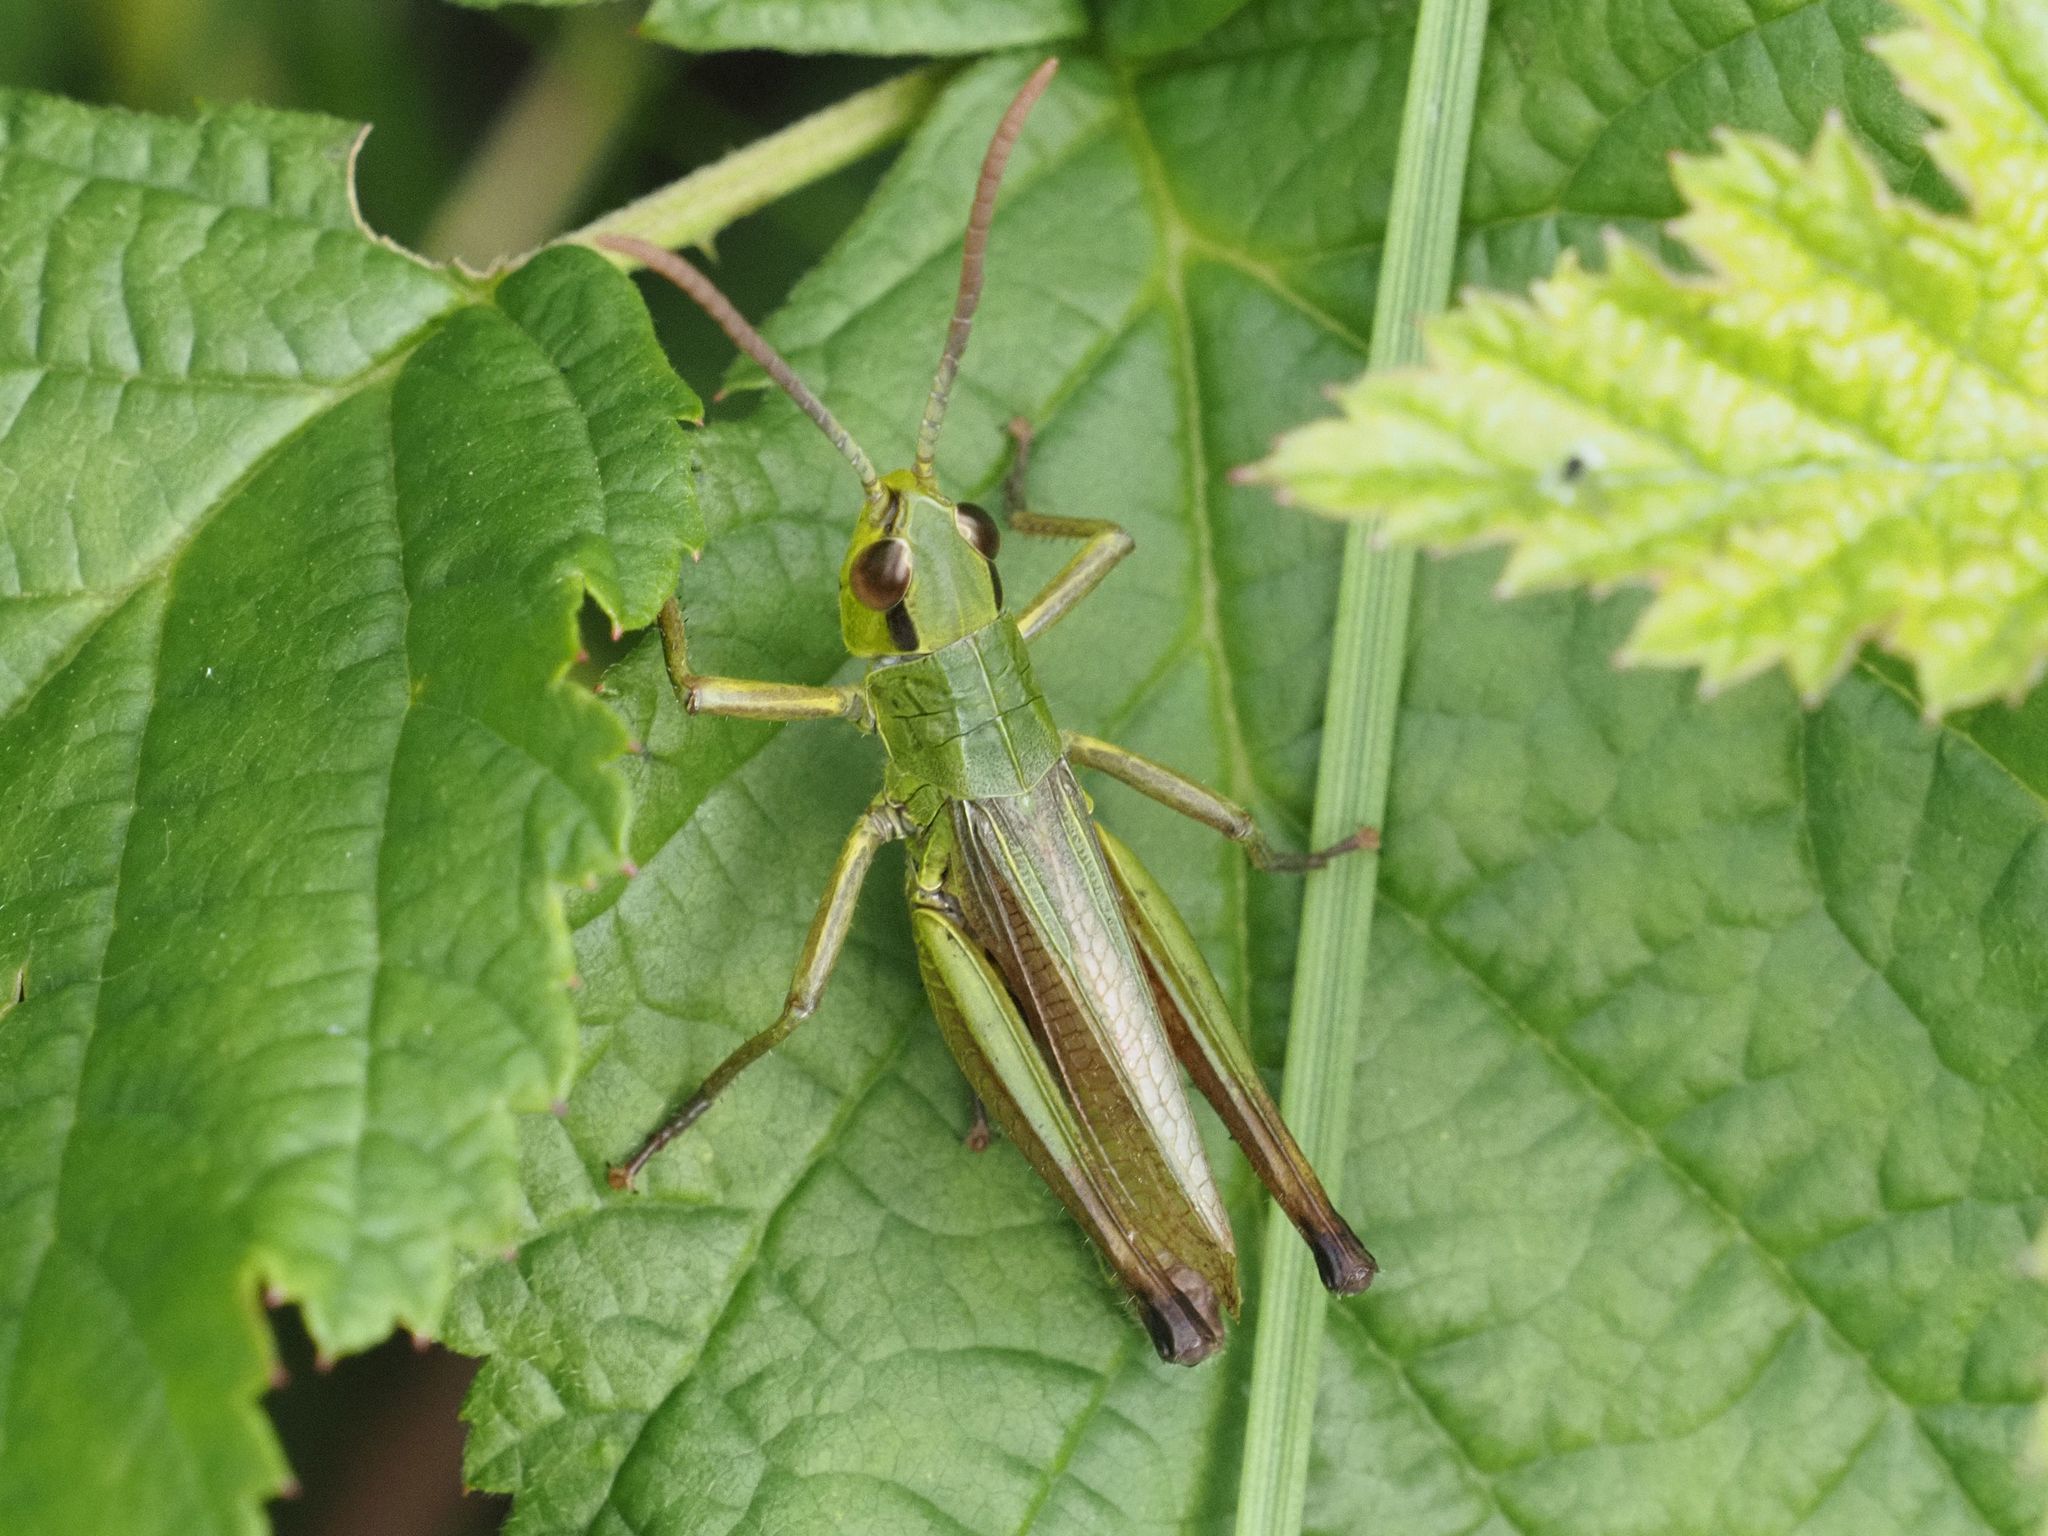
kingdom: Animalia
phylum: Arthropoda
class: Insecta
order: Orthoptera
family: Acrididae
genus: Pseudochorthippus
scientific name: Pseudochorthippus parallelus
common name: Meadow grasshopper
